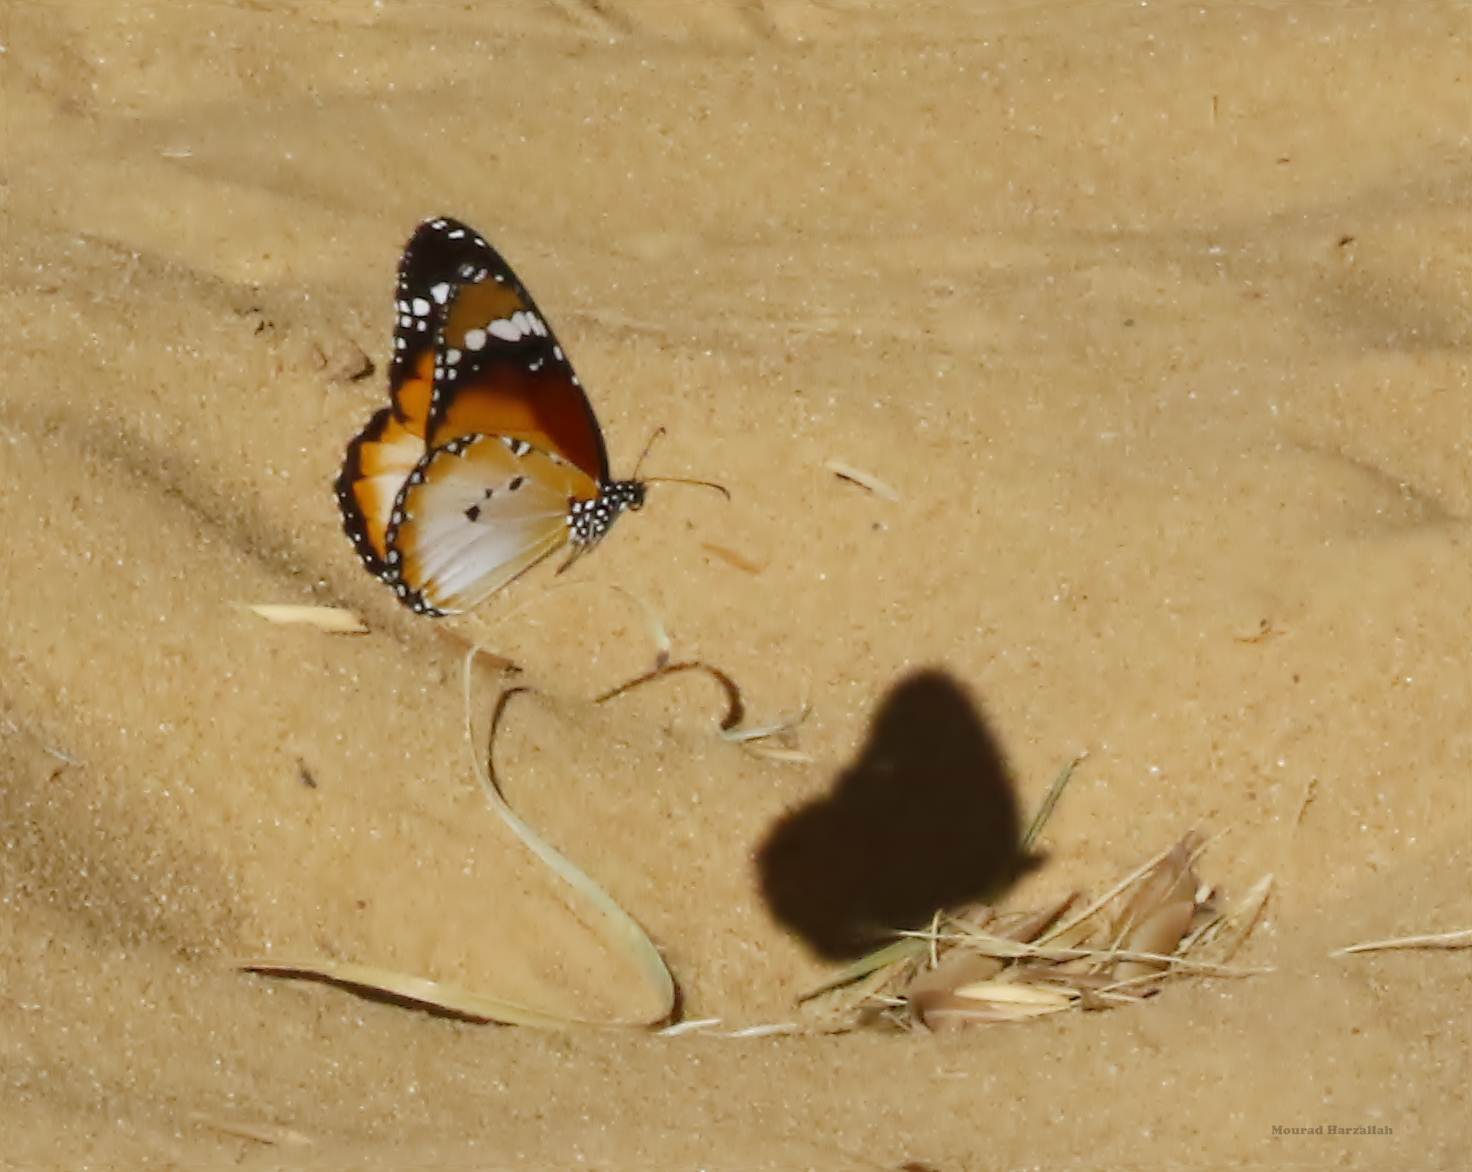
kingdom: Animalia
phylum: Arthropoda
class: Insecta
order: Lepidoptera
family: Nymphalidae
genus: Danaus
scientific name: Danaus chrysippus
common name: Plain tiger
